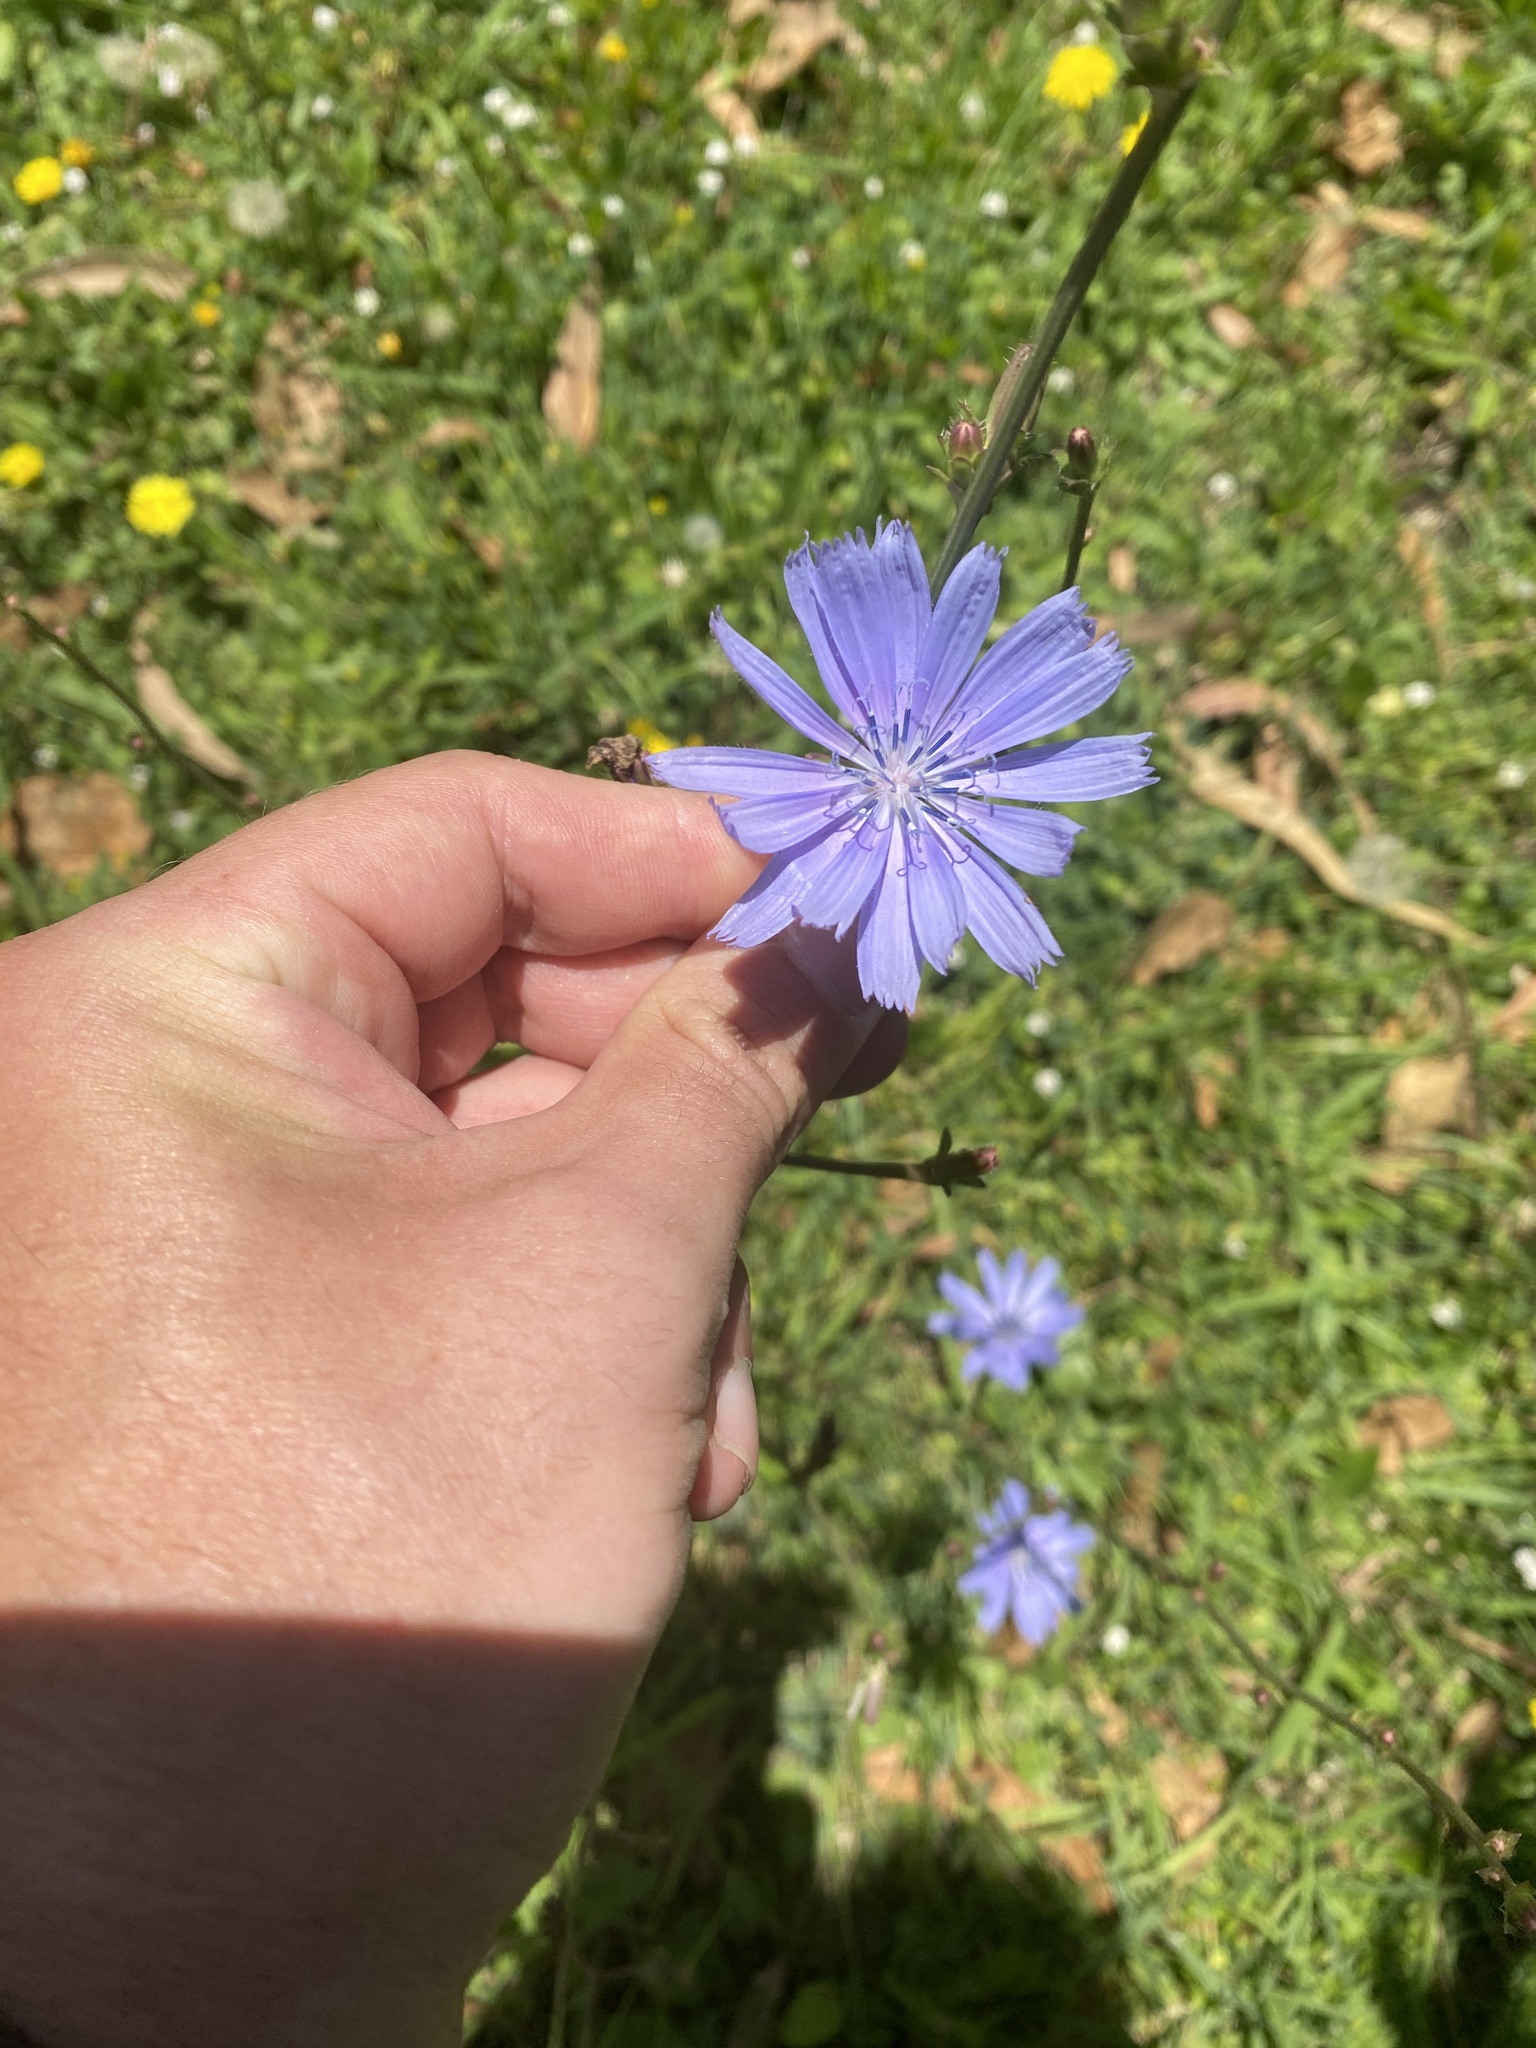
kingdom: Plantae
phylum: Tracheophyta
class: Magnoliopsida
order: Asterales
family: Asteraceae
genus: Cichorium
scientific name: Cichorium intybus
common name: Chicory
